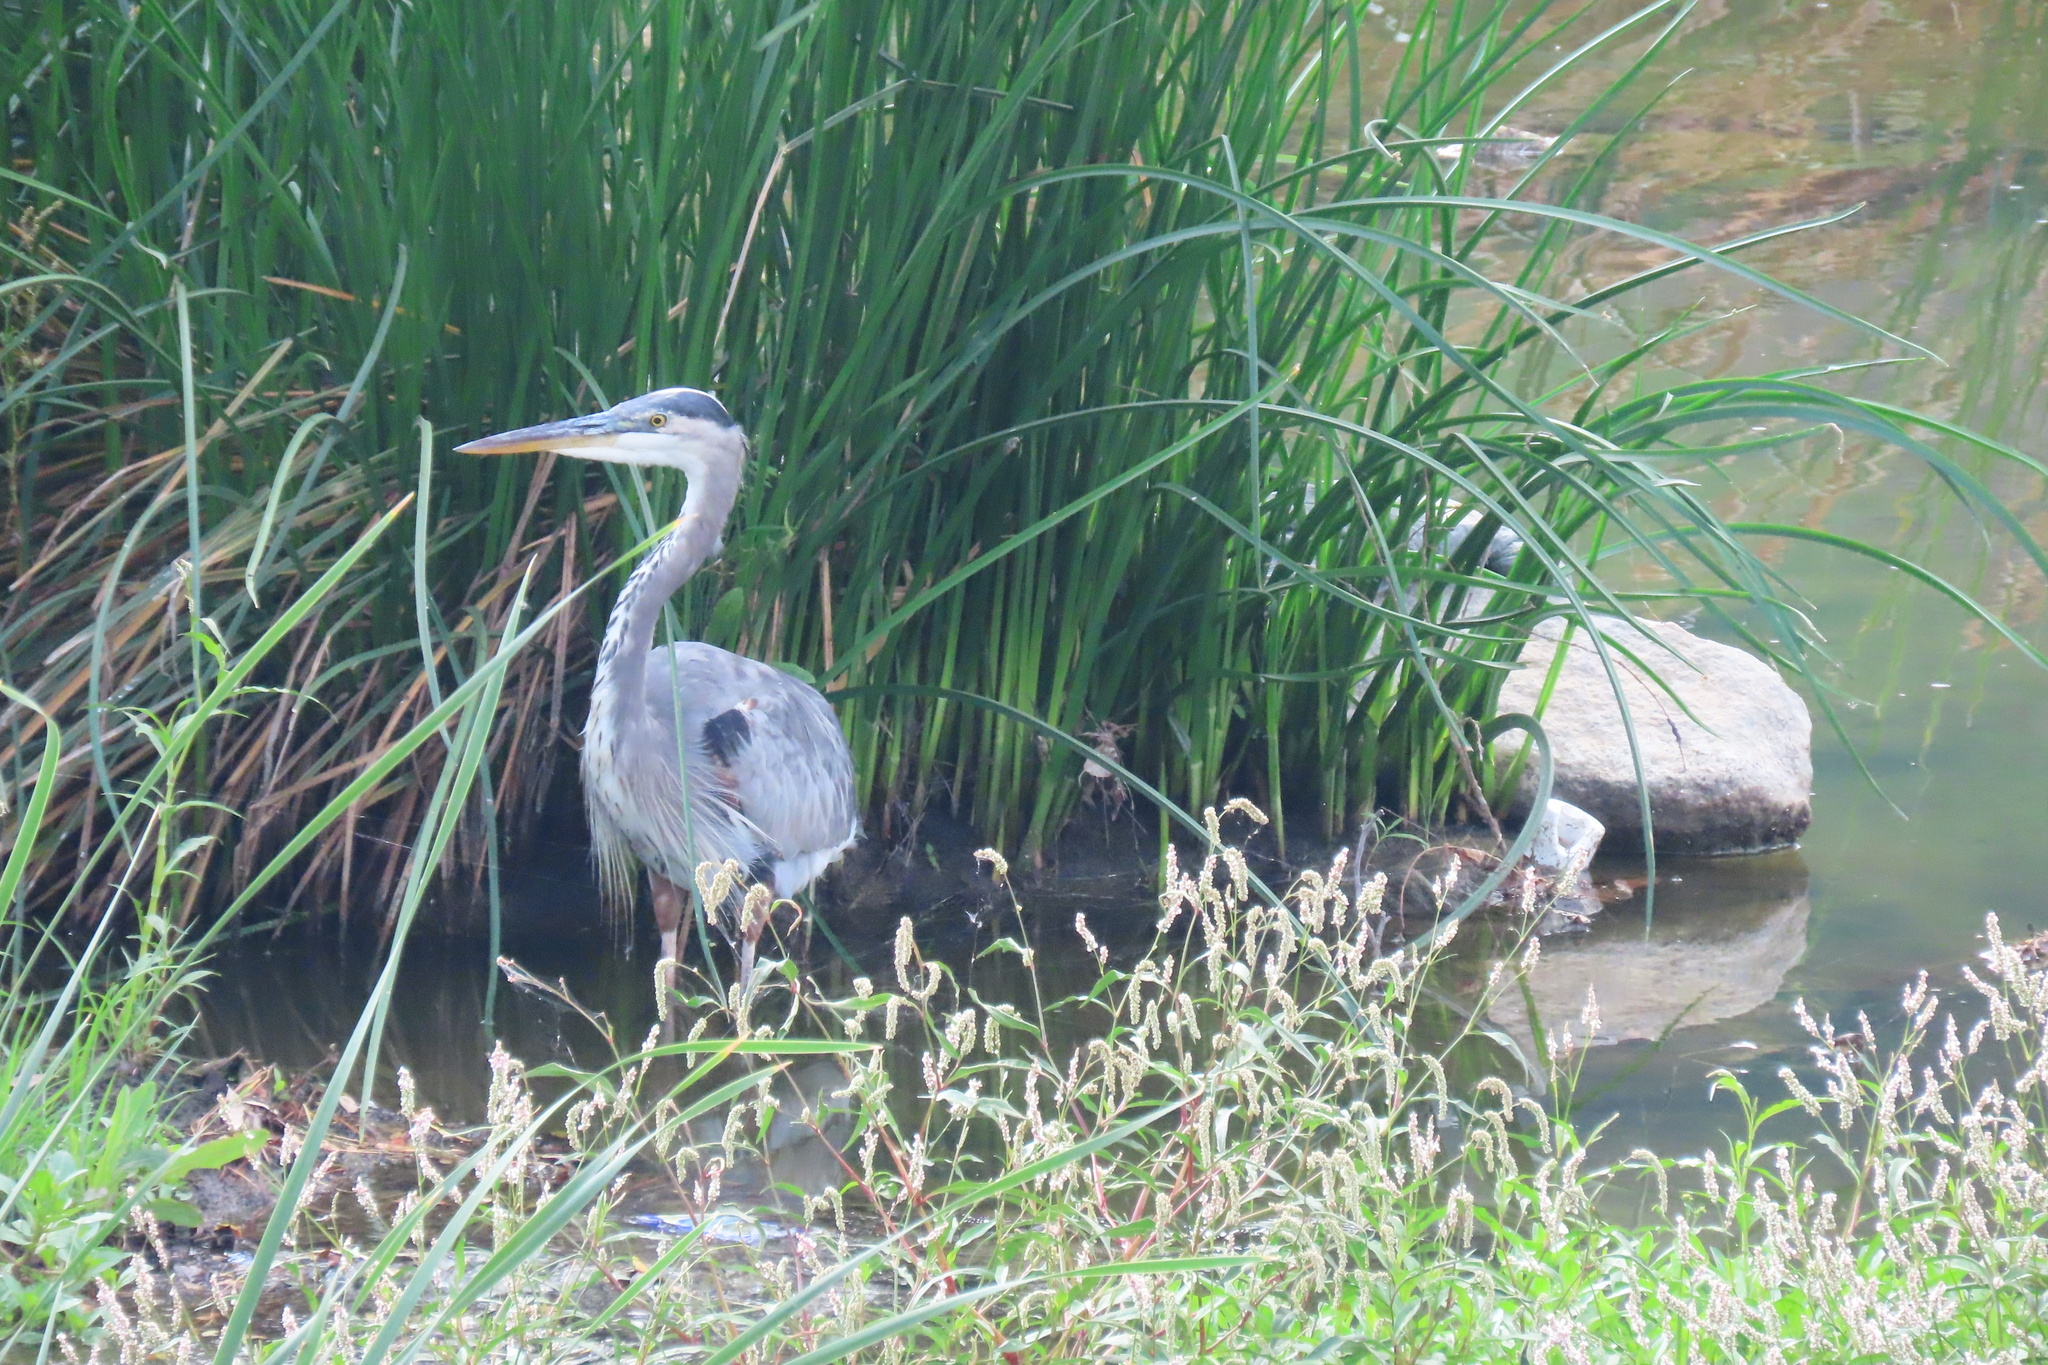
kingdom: Animalia
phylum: Chordata
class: Aves
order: Pelecaniformes
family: Ardeidae
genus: Ardea
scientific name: Ardea herodias
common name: Great blue heron
